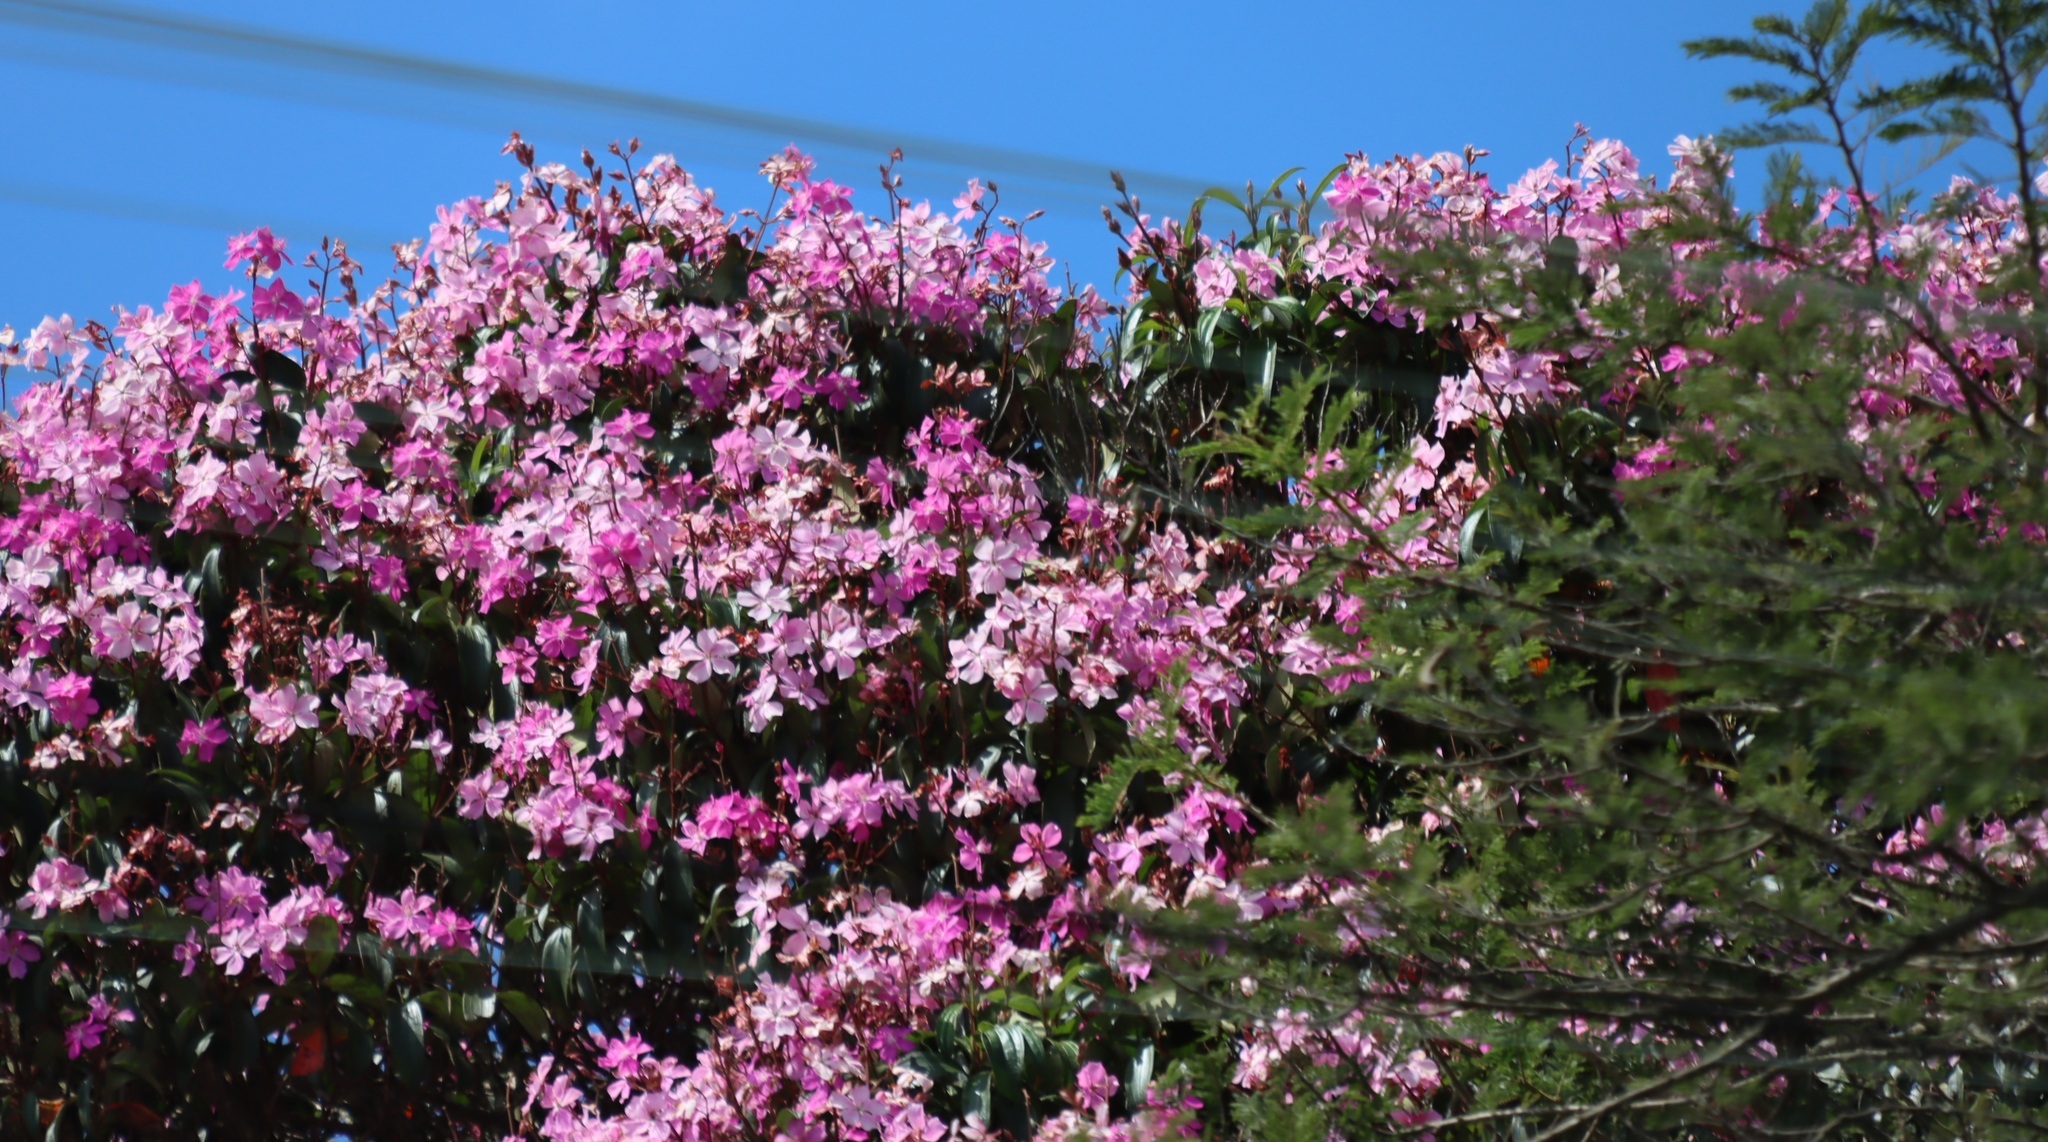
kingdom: Plantae
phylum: Tracheophyta
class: Magnoliopsida
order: Myrtales
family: Melastomataceae
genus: Pleroma
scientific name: Pleroma granulosum
